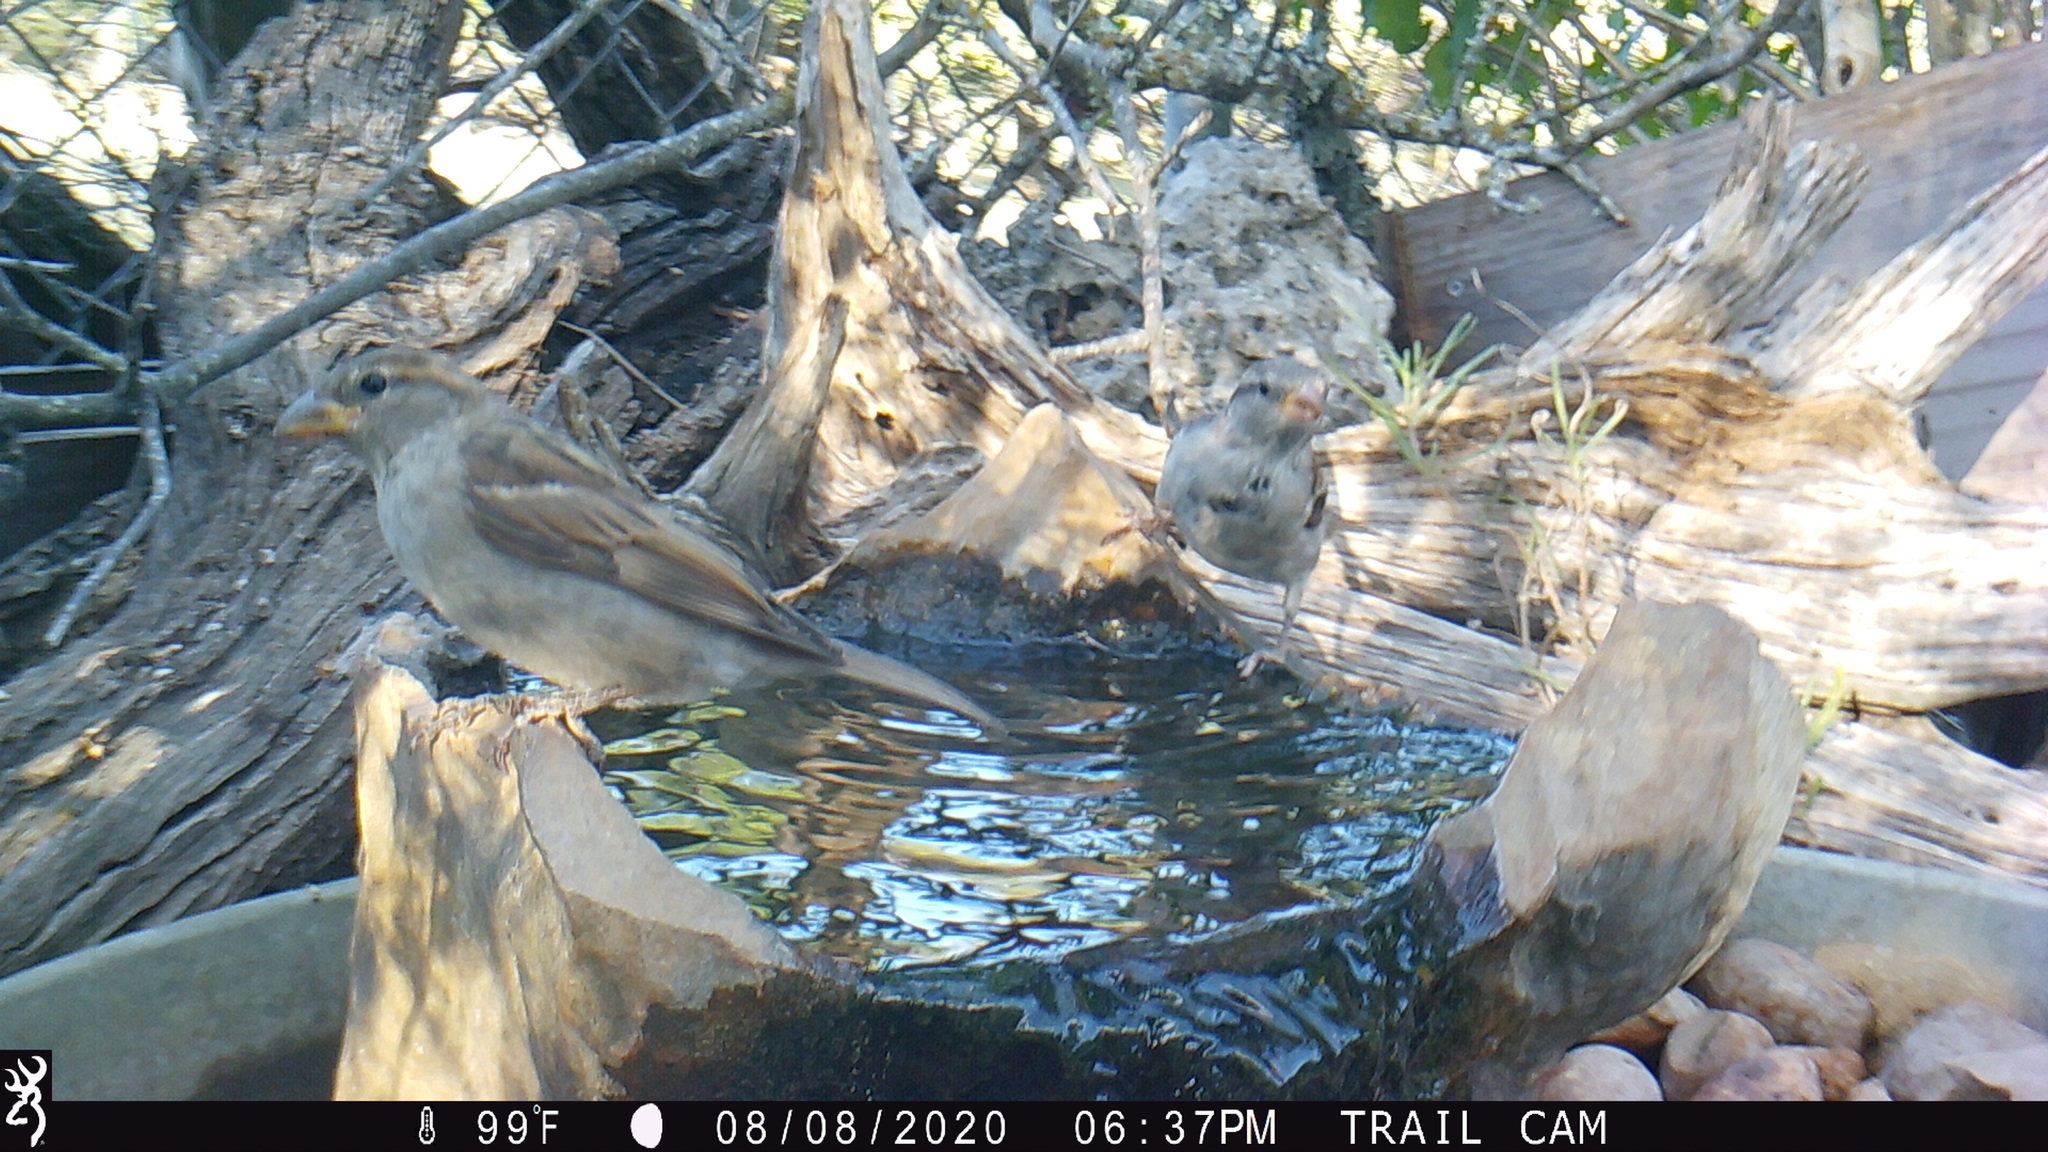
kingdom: Animalia
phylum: Chordata
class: Aves
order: Passeriformes
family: Passeridae
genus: Passer
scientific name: Passer domesticus
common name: House sparrow
